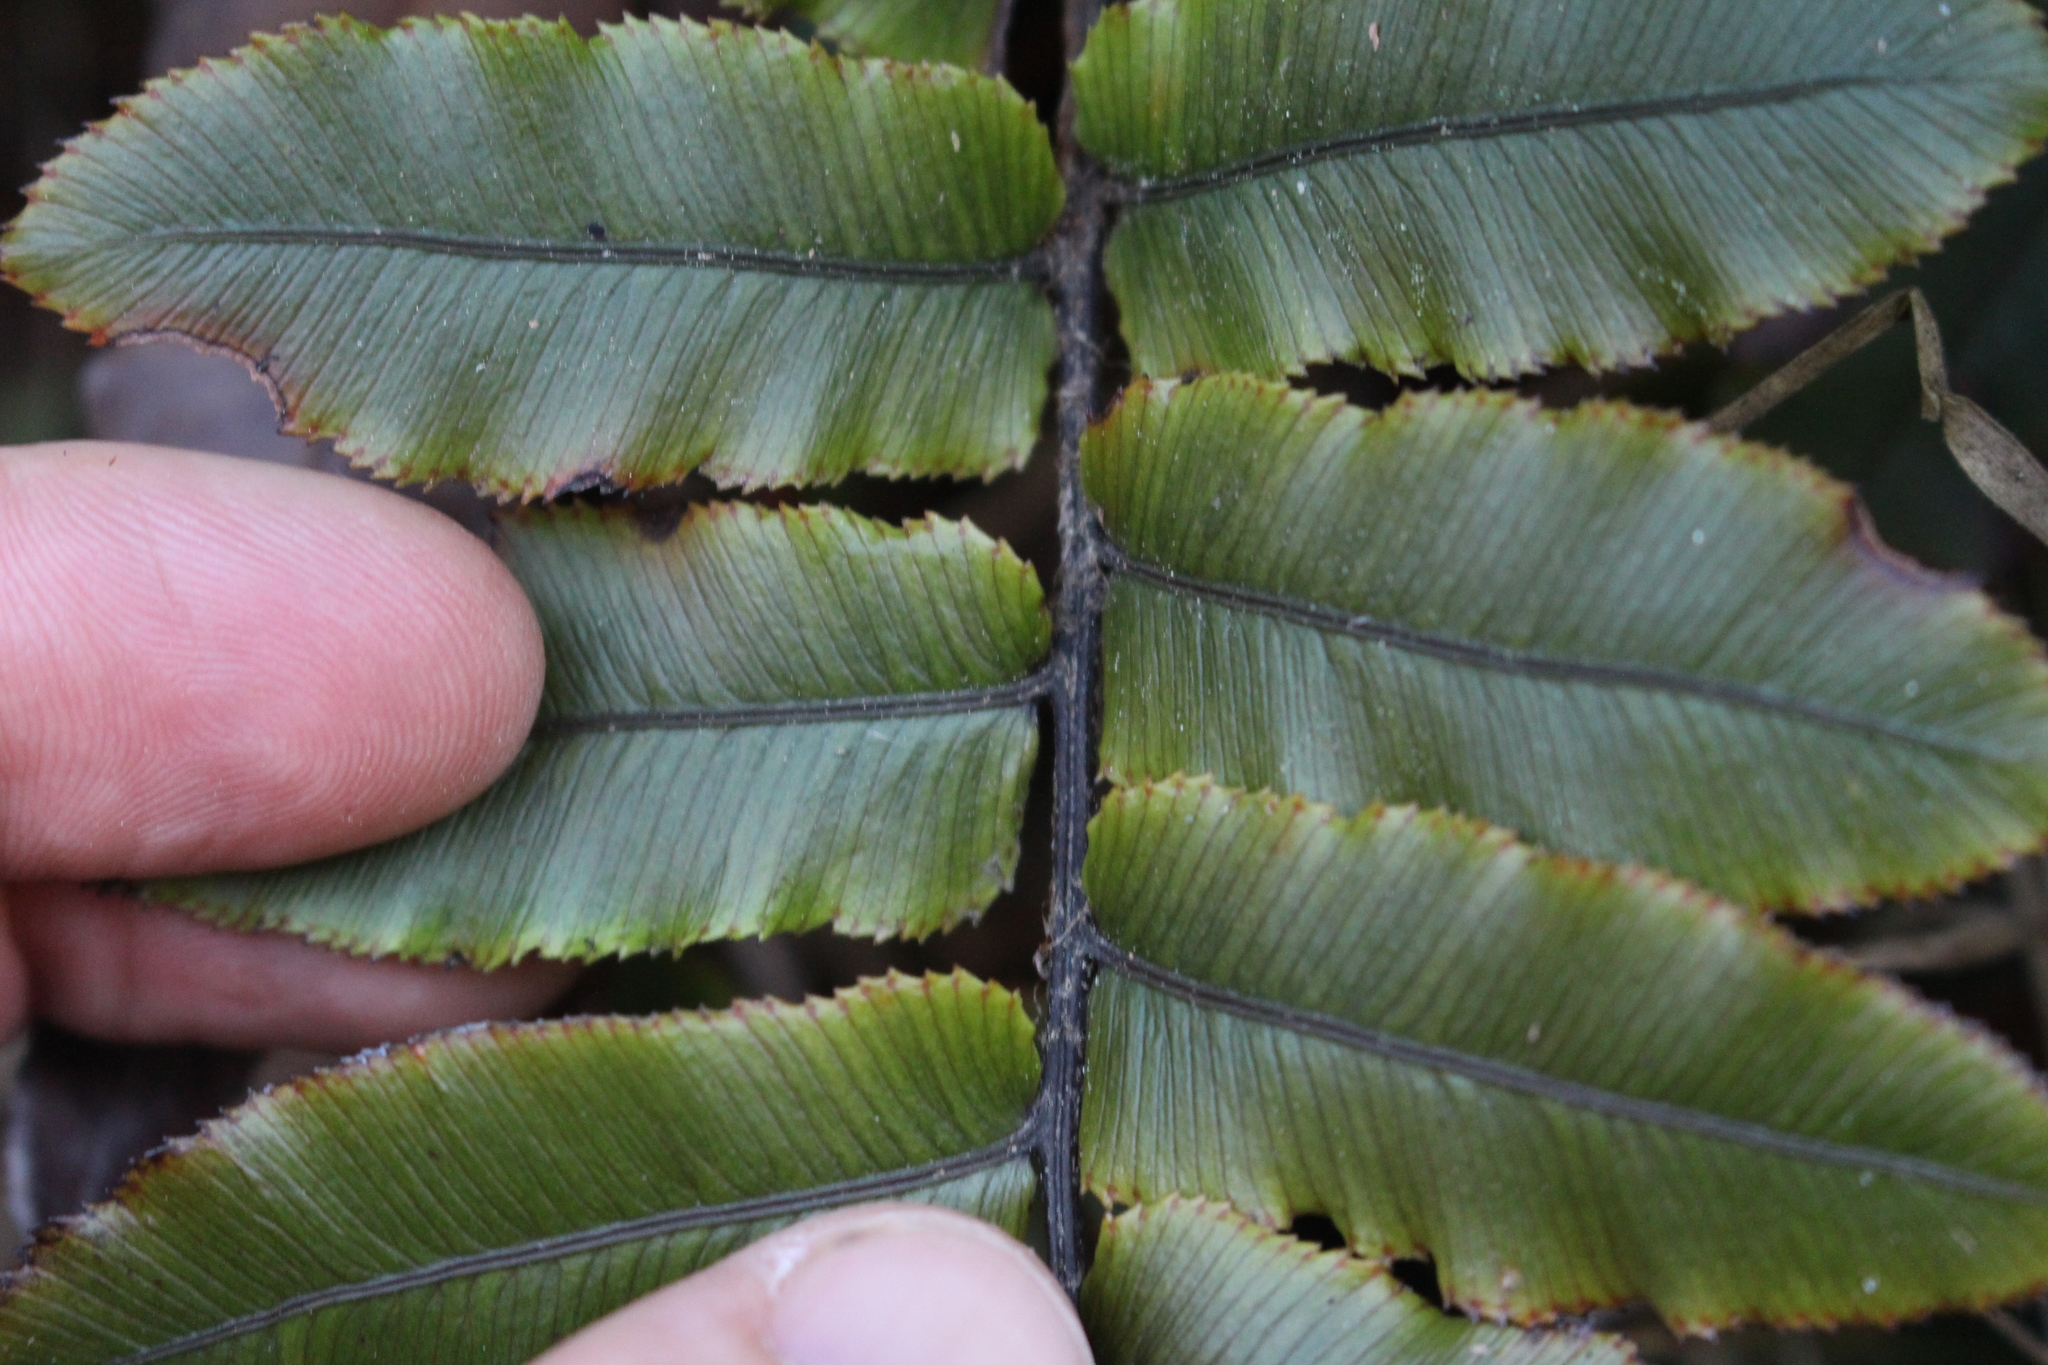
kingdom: Plantae
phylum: Tracheophyta
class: Polypodiopsida
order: Polypodiales
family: Blechnaceae
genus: Parablechnum
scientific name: Parablechnum procerum
